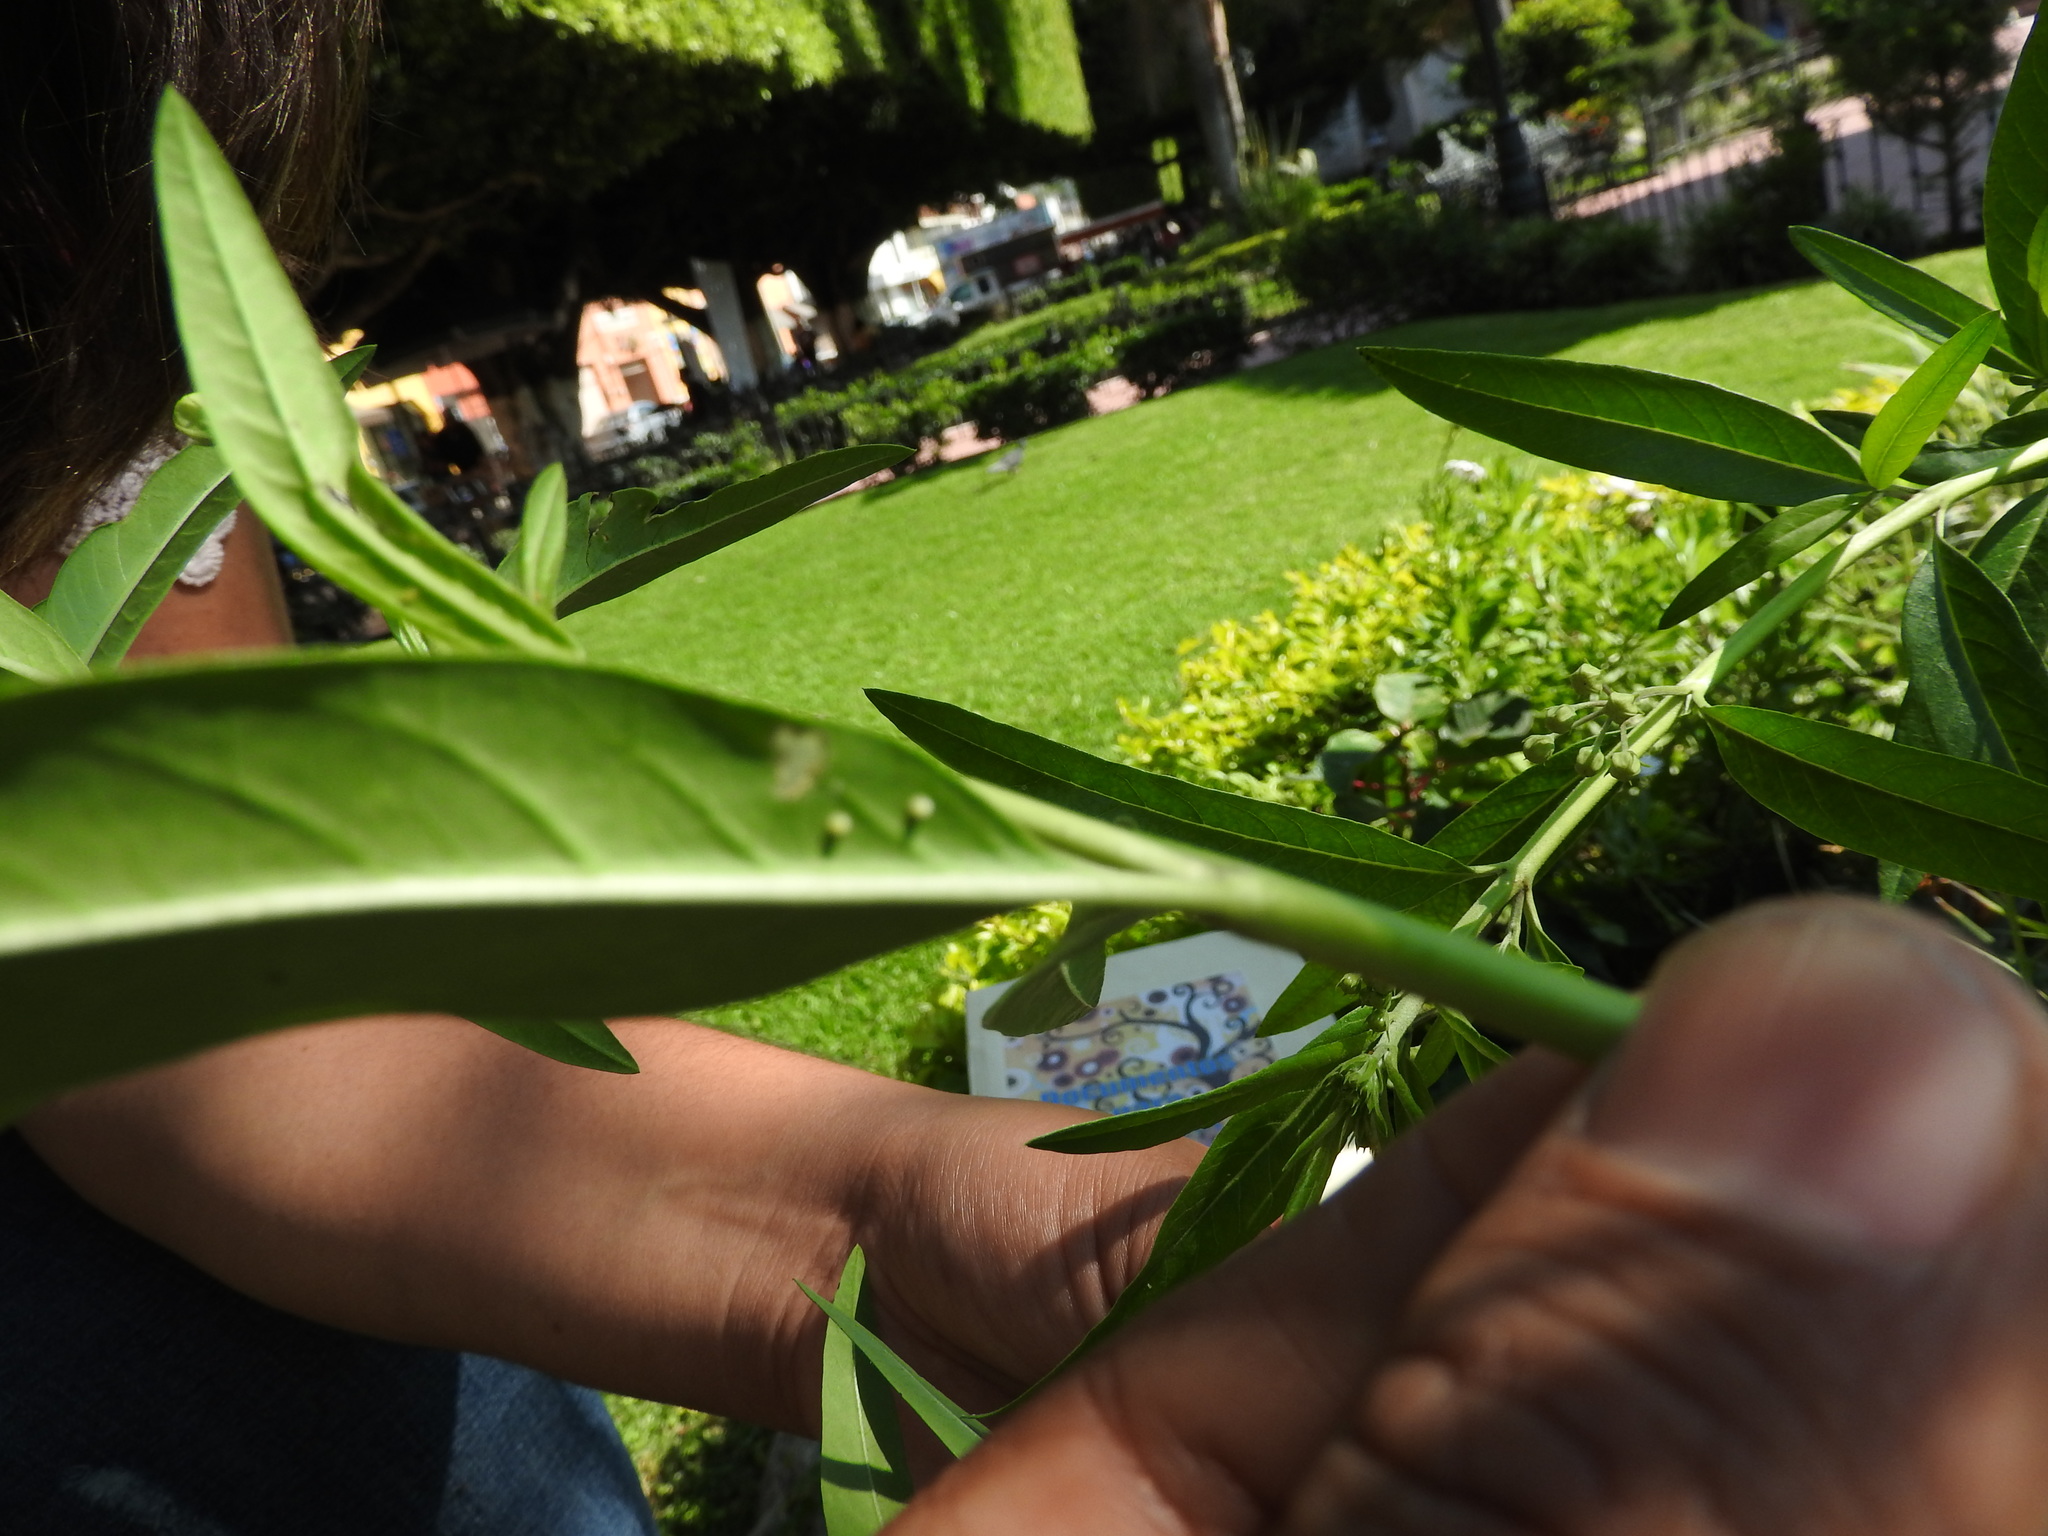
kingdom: Animalia
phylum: Arthropoda
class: Insecta
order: Lepidoptera
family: Nymphalidae
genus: Danaus
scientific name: Danaus plexippus
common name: Monarch
